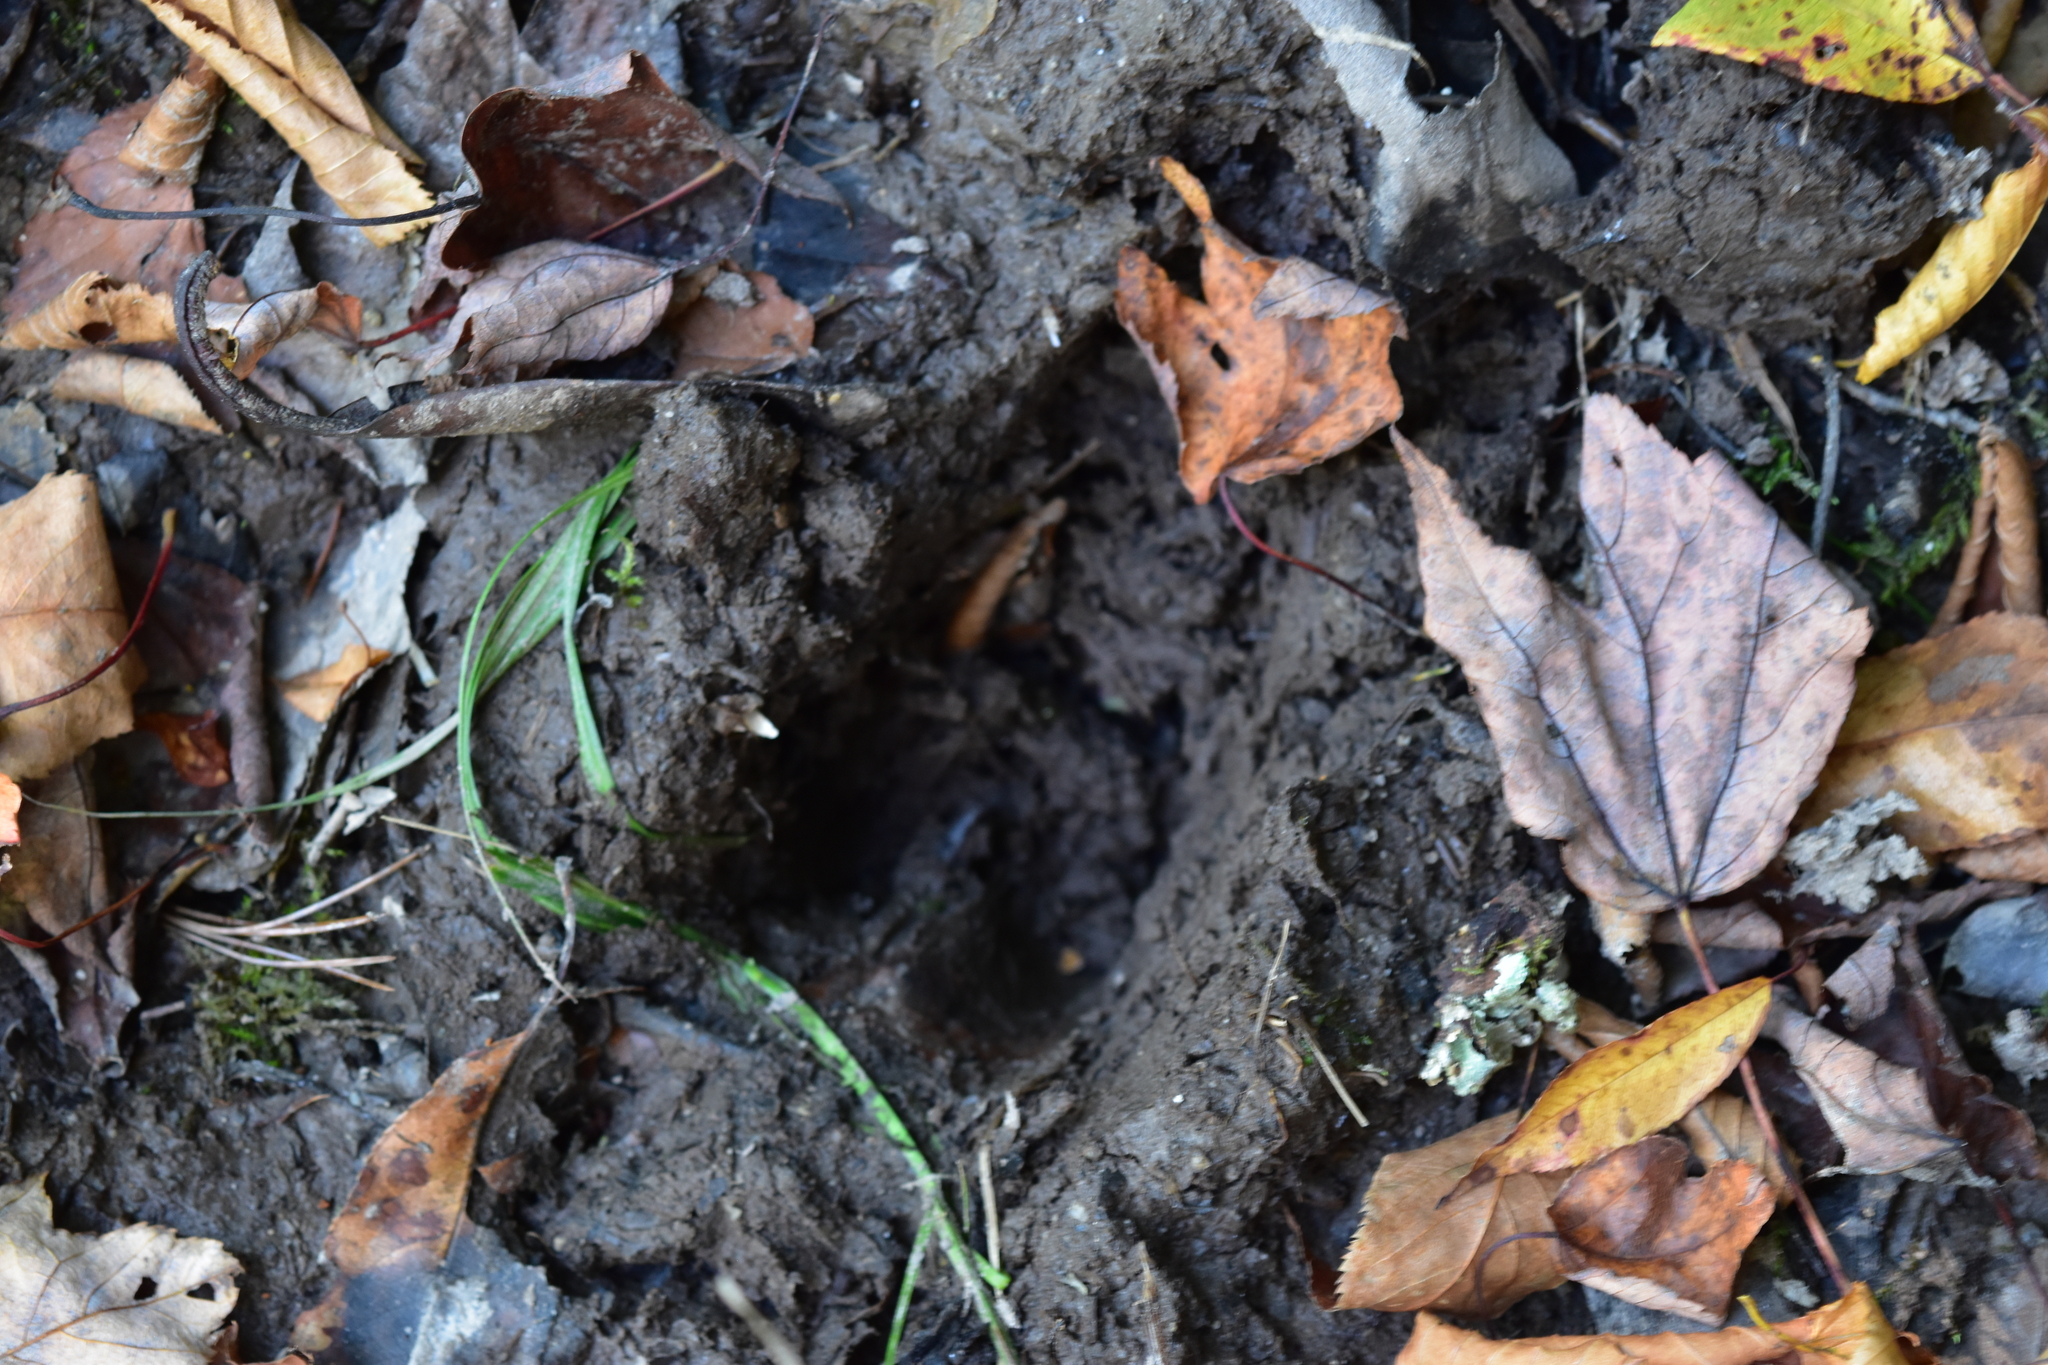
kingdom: Animalia
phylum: Chordata
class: Mammalia
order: Artiodactyla
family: Cervidae
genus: Odocoileus
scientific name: Odocoileus virginianus
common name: White-tailed deer
